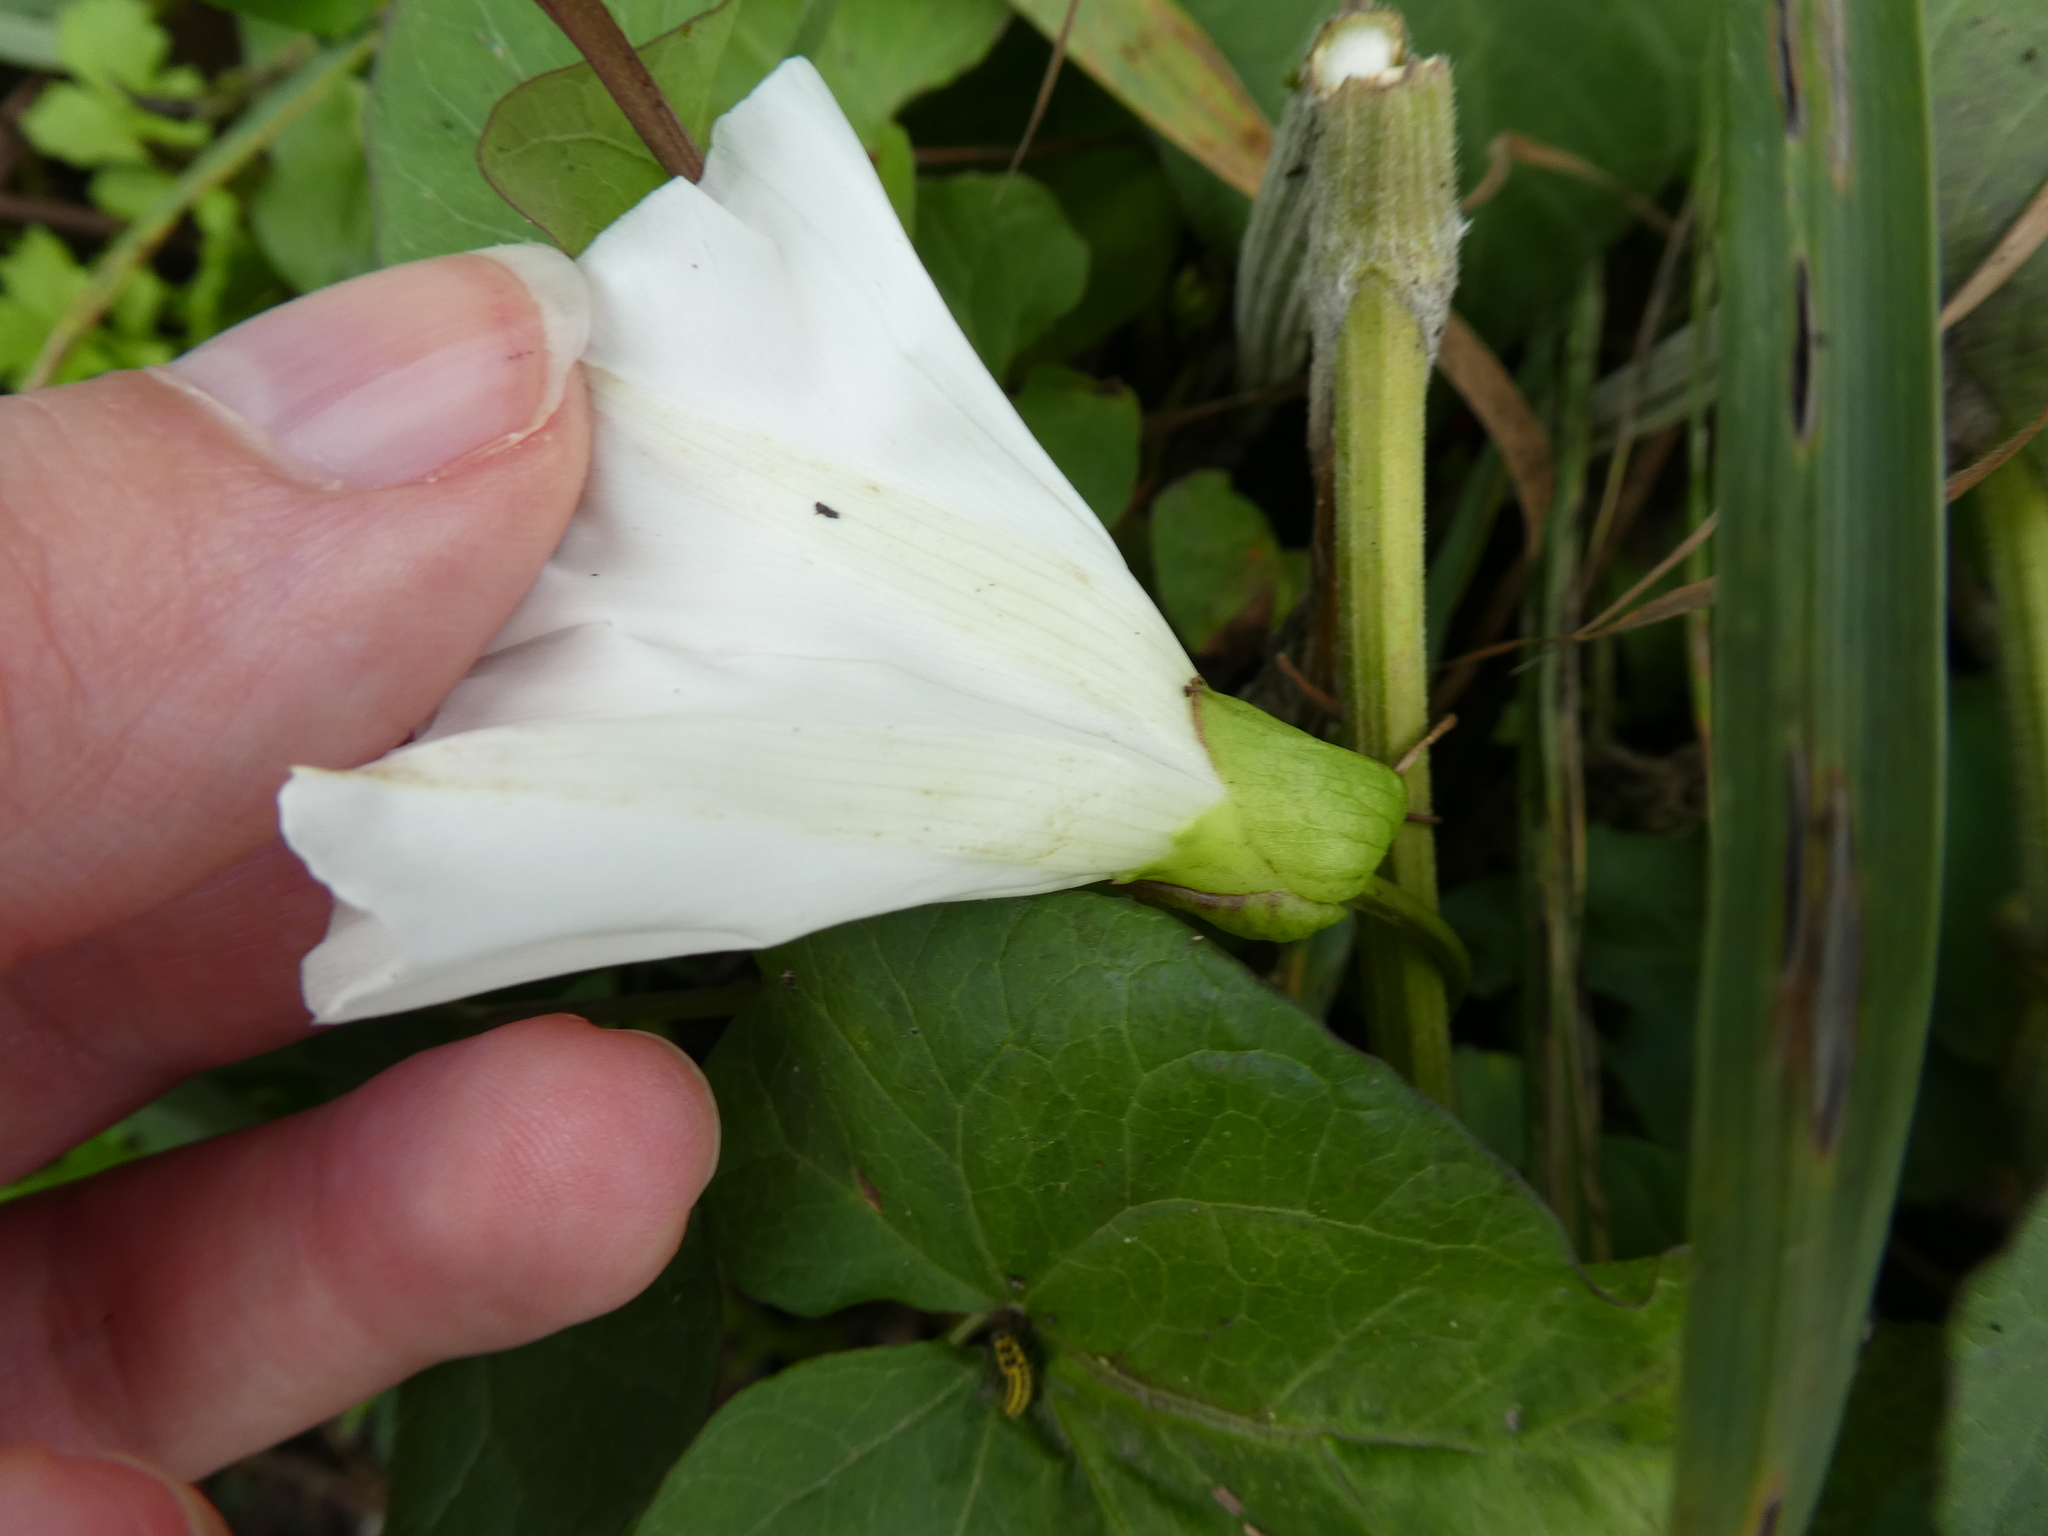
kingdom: Plantae
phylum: Tracheophyta
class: Magnoliopsida
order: Solanales
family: Convolvulaceae
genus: Calystegia
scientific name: Calystegia silvatica
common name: Large bindweed
